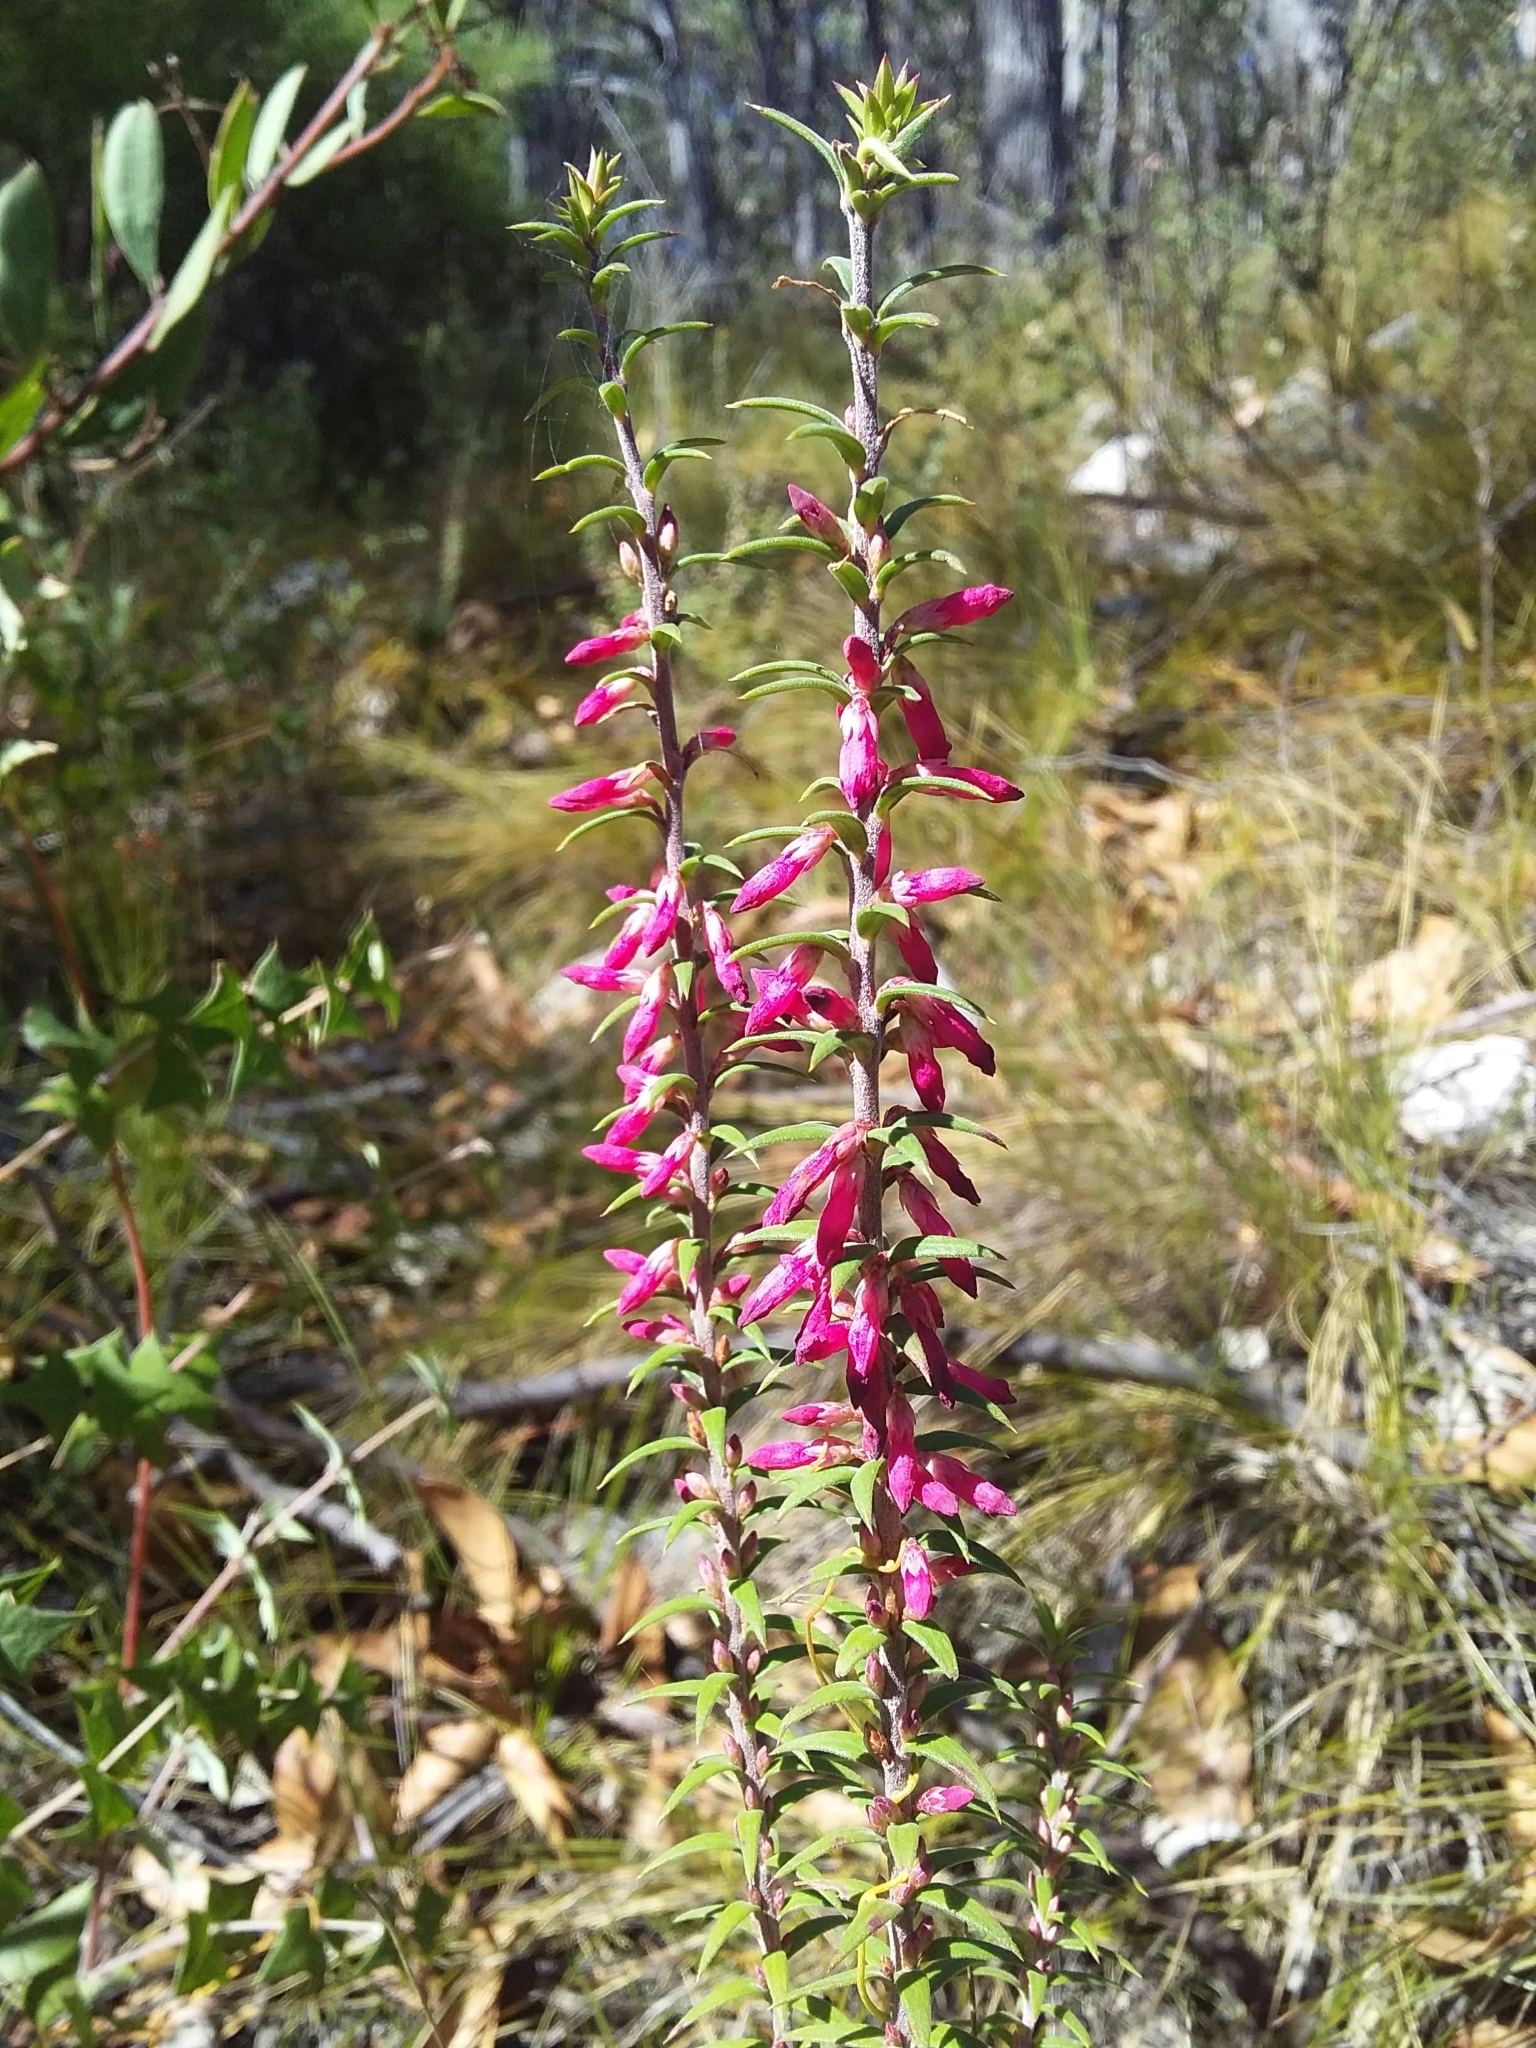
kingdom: Plantae
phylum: Tracheophyta
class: Magnoliopsida
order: Ericales
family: Ericaceae
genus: Epacris
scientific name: Epacris impressa
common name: Common-heath
